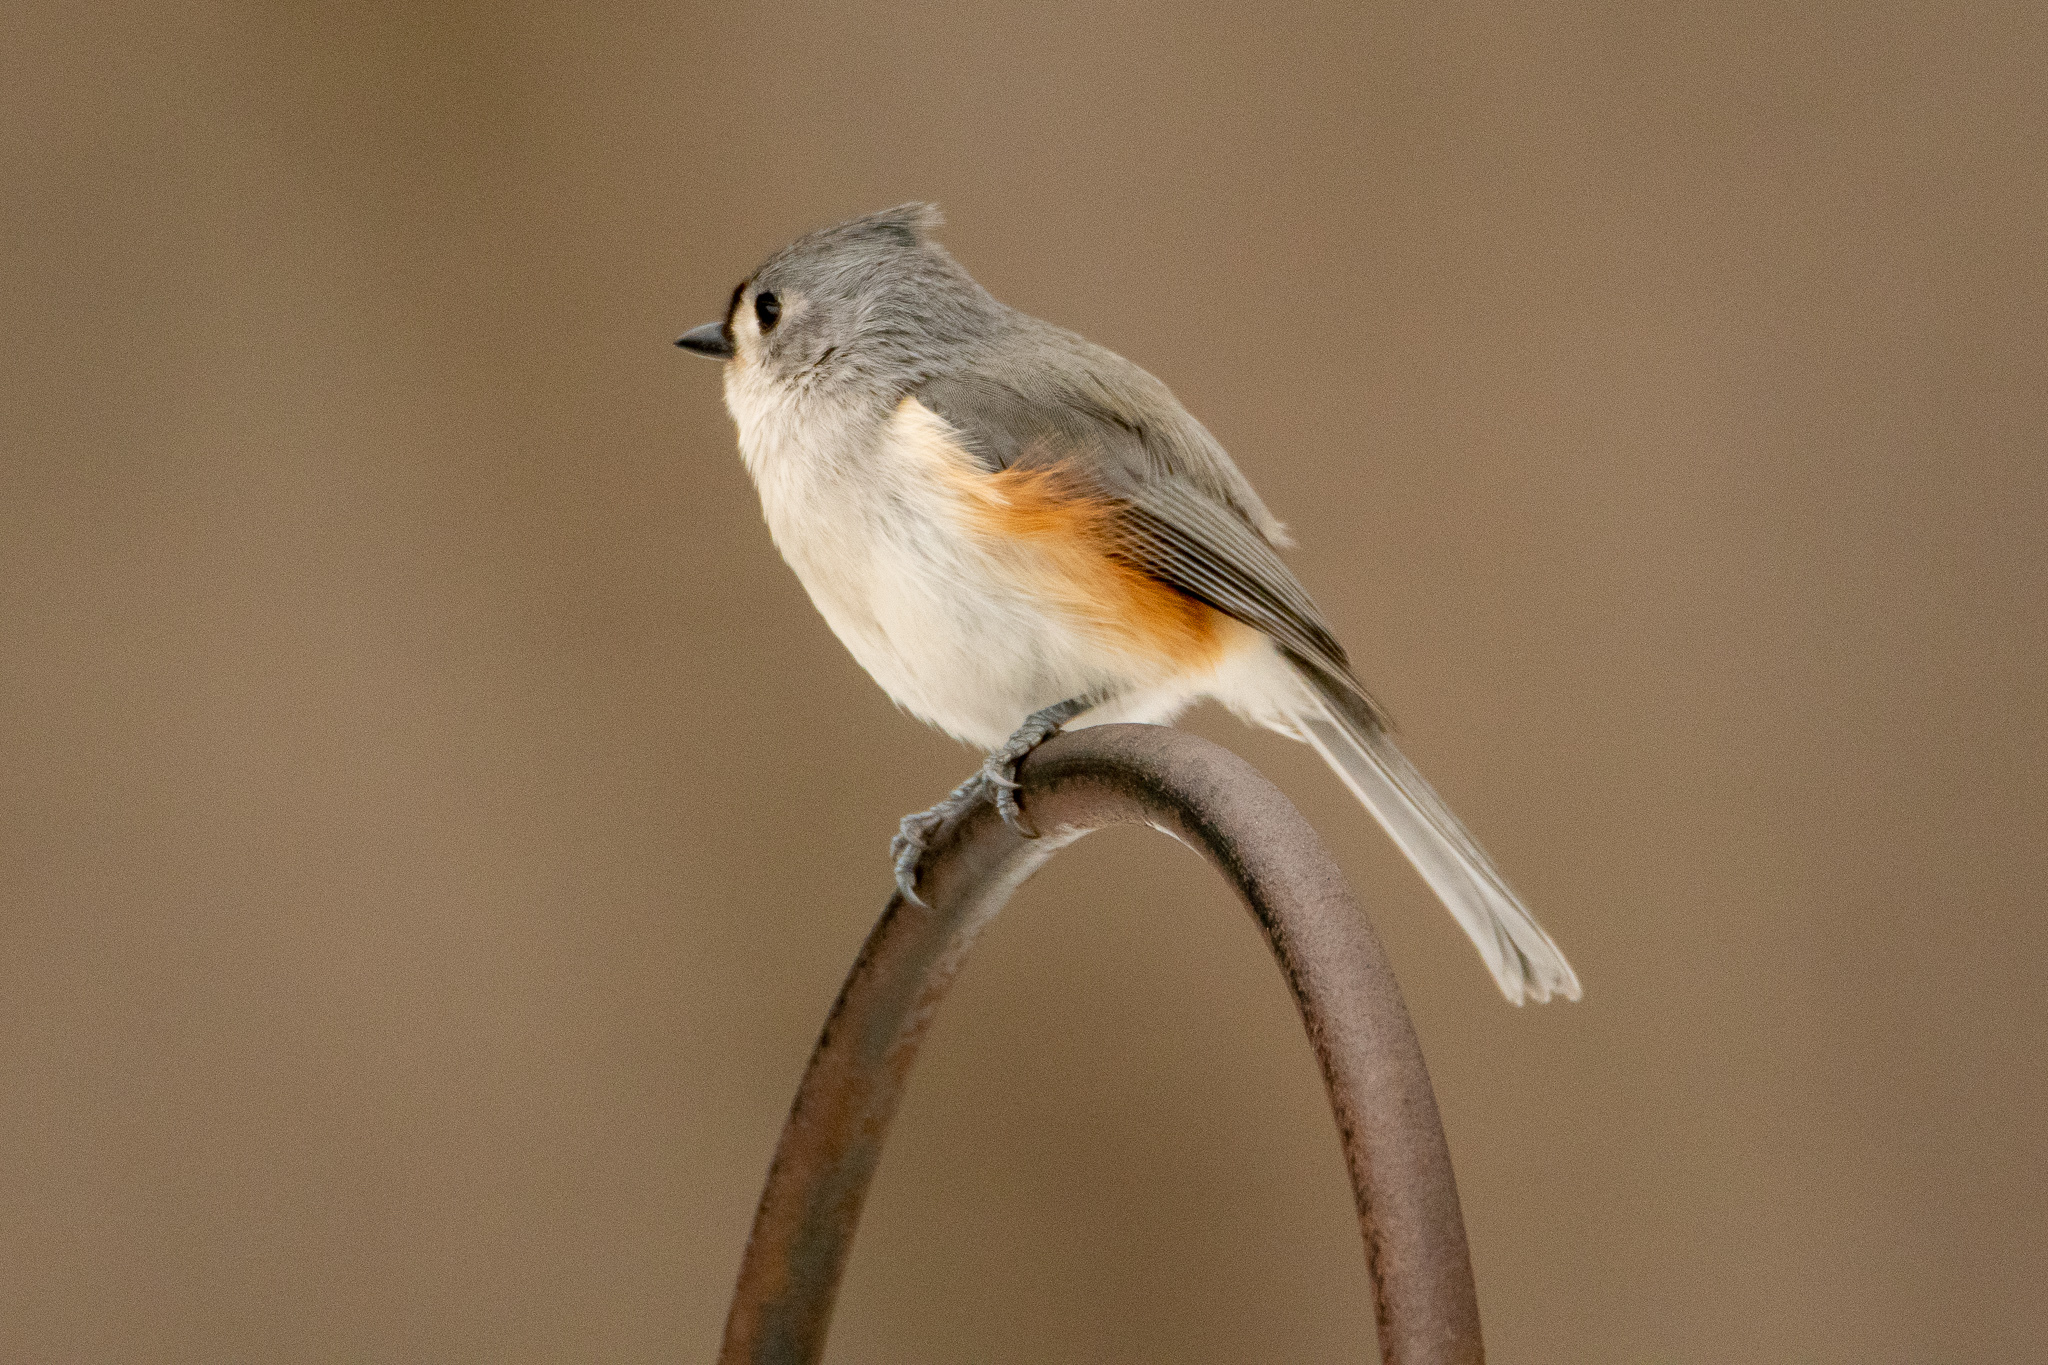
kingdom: Animalia
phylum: Chordata
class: Aves
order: Passeriformes
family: Paridae
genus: Baeolophus
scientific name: Baeolophus bicolor
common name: Tufted titmouse
